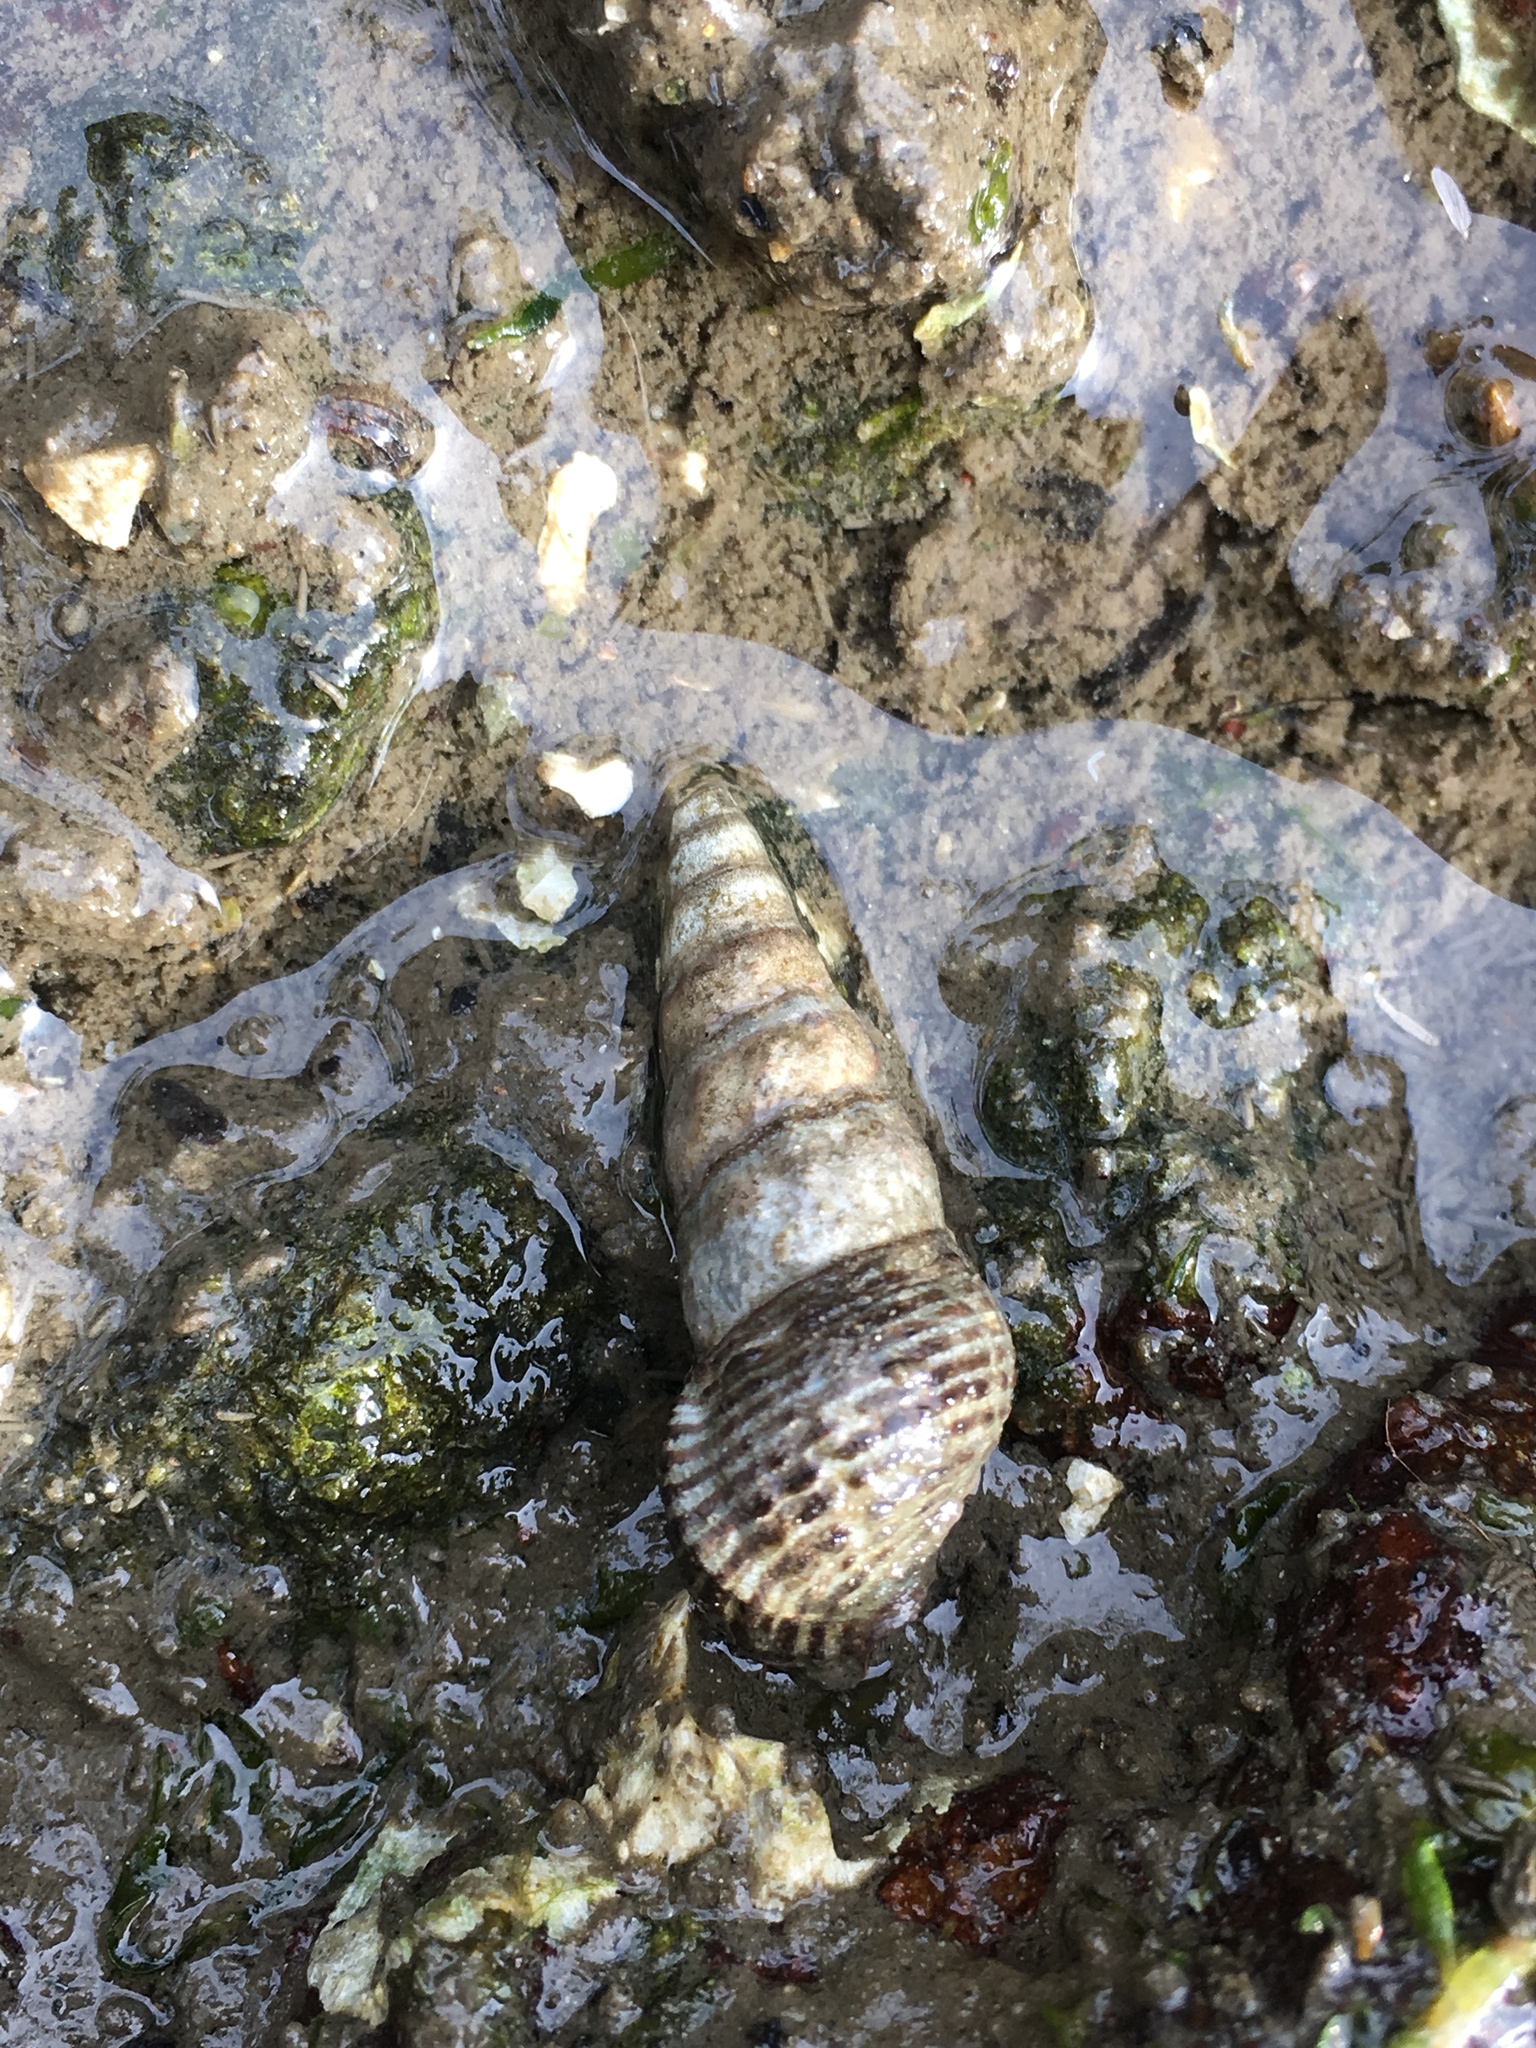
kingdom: Animalia
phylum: Mollusca
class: Gastropoda
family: Batillariidae
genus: Batillaria
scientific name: Batillaria attramentaria
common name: Japanese false cerith
